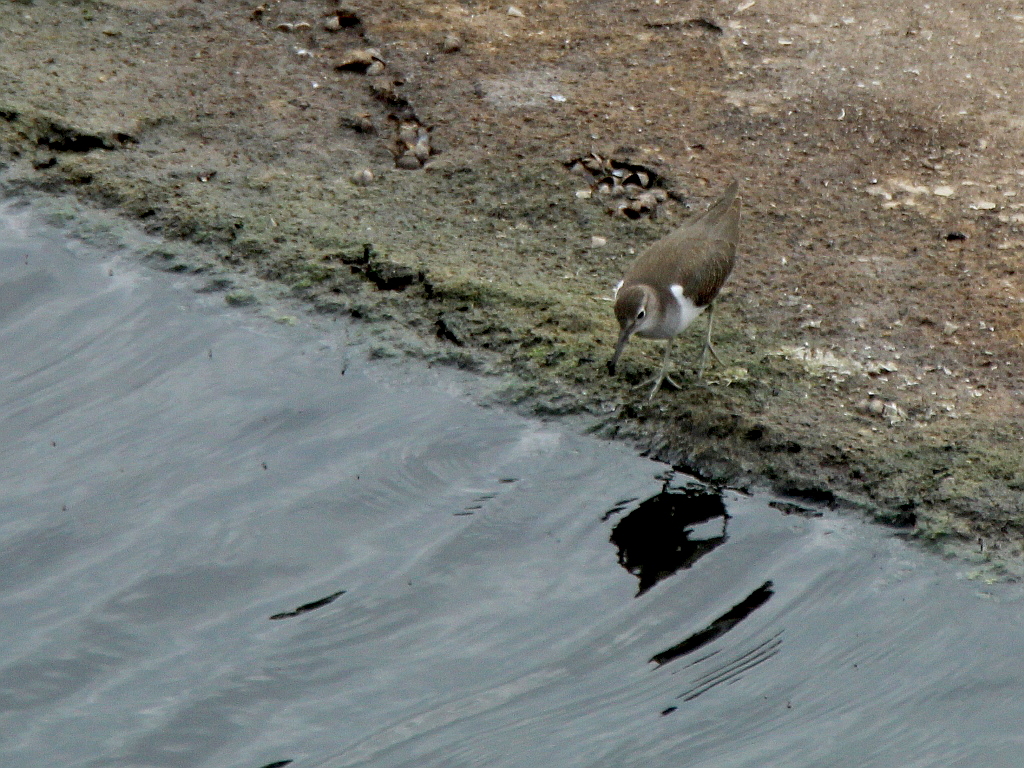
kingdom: Animalia
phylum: Chordata
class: Aves
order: Charadriiformes
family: Scolopacidae
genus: Actitis
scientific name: Actitis hypoleucos
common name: Common sandpiper
